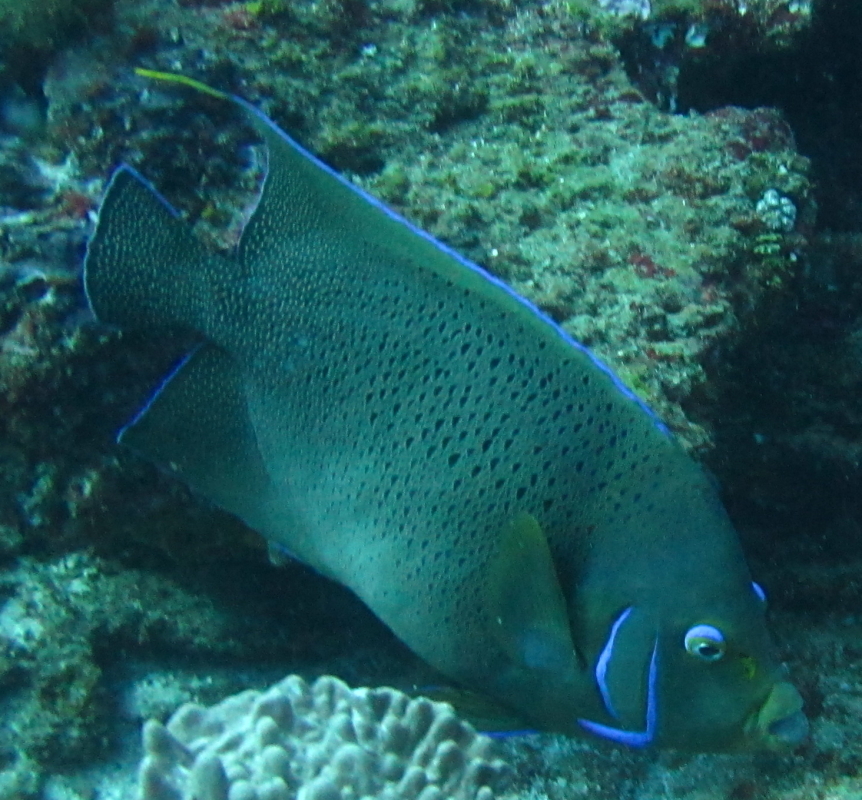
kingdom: Animalia
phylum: Chordata
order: Perciformes
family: Pomacanthidae
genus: Pomacanthus
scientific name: Pomacanthus semicirculatus
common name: Semicircle angelfish
